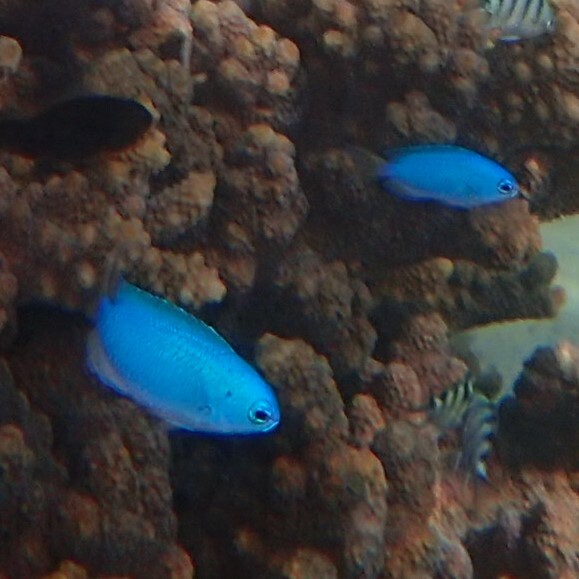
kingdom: Animalia
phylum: Chordata
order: Perciformes
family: Pomacentridae
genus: Pomacentrus
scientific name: Pomacentrus coelestis
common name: Neon damsel
